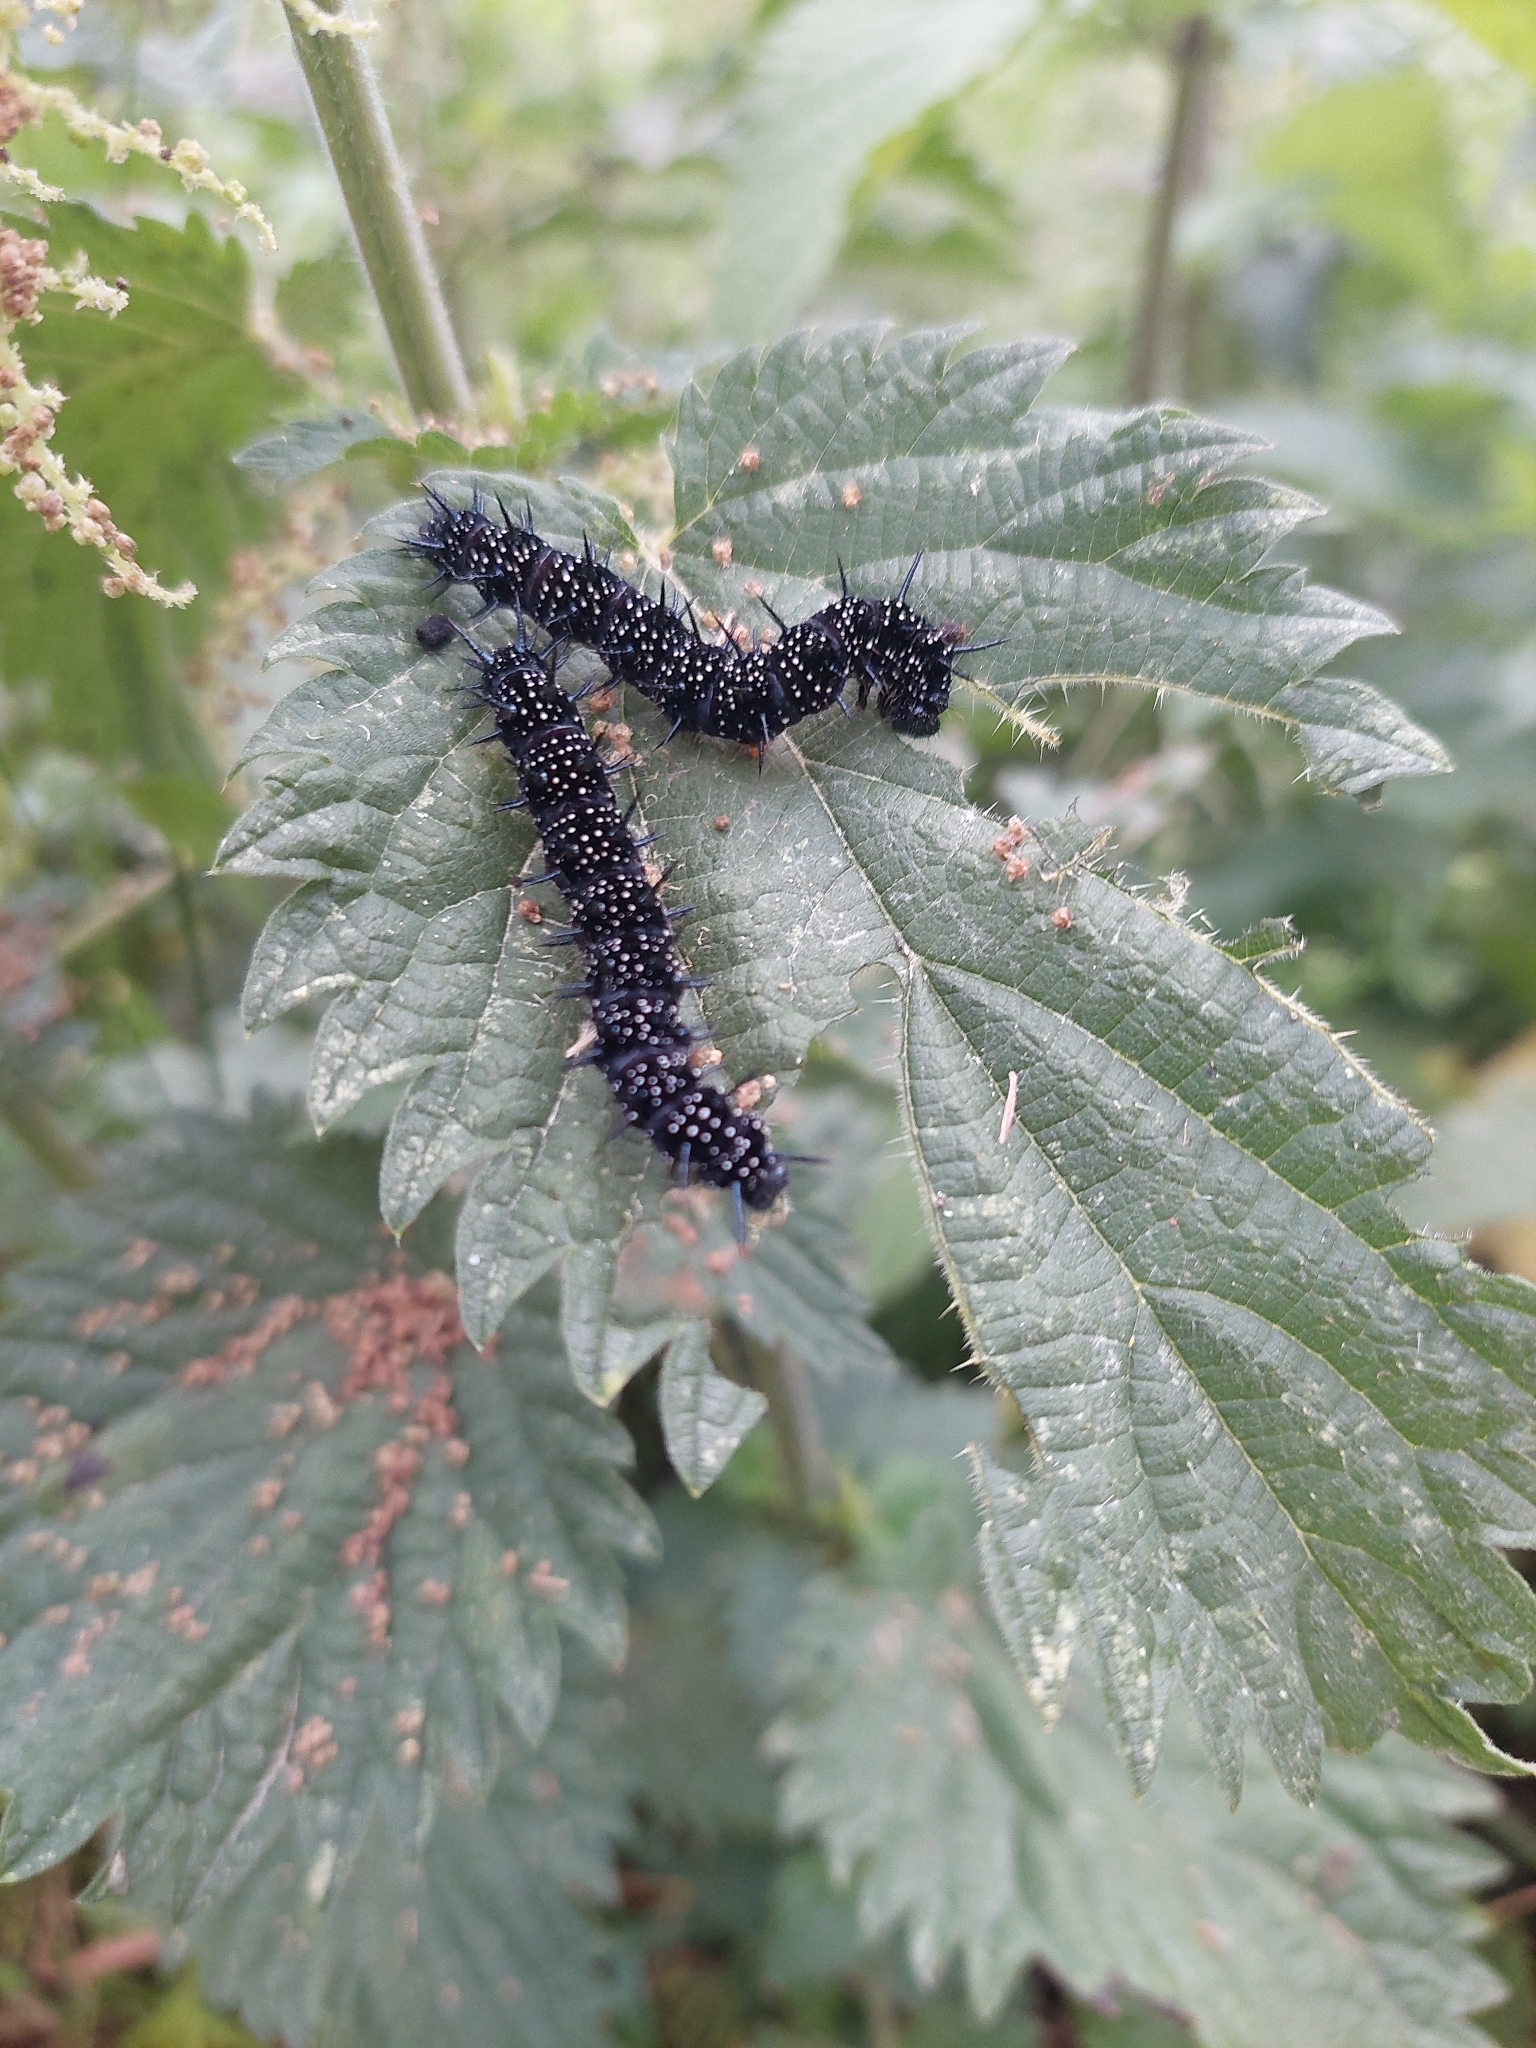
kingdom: Animalia
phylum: Arthropoda
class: Insecta
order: Lepidoptera
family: Nymphalidae
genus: Aglais
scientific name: Aglais io
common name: Peacock
